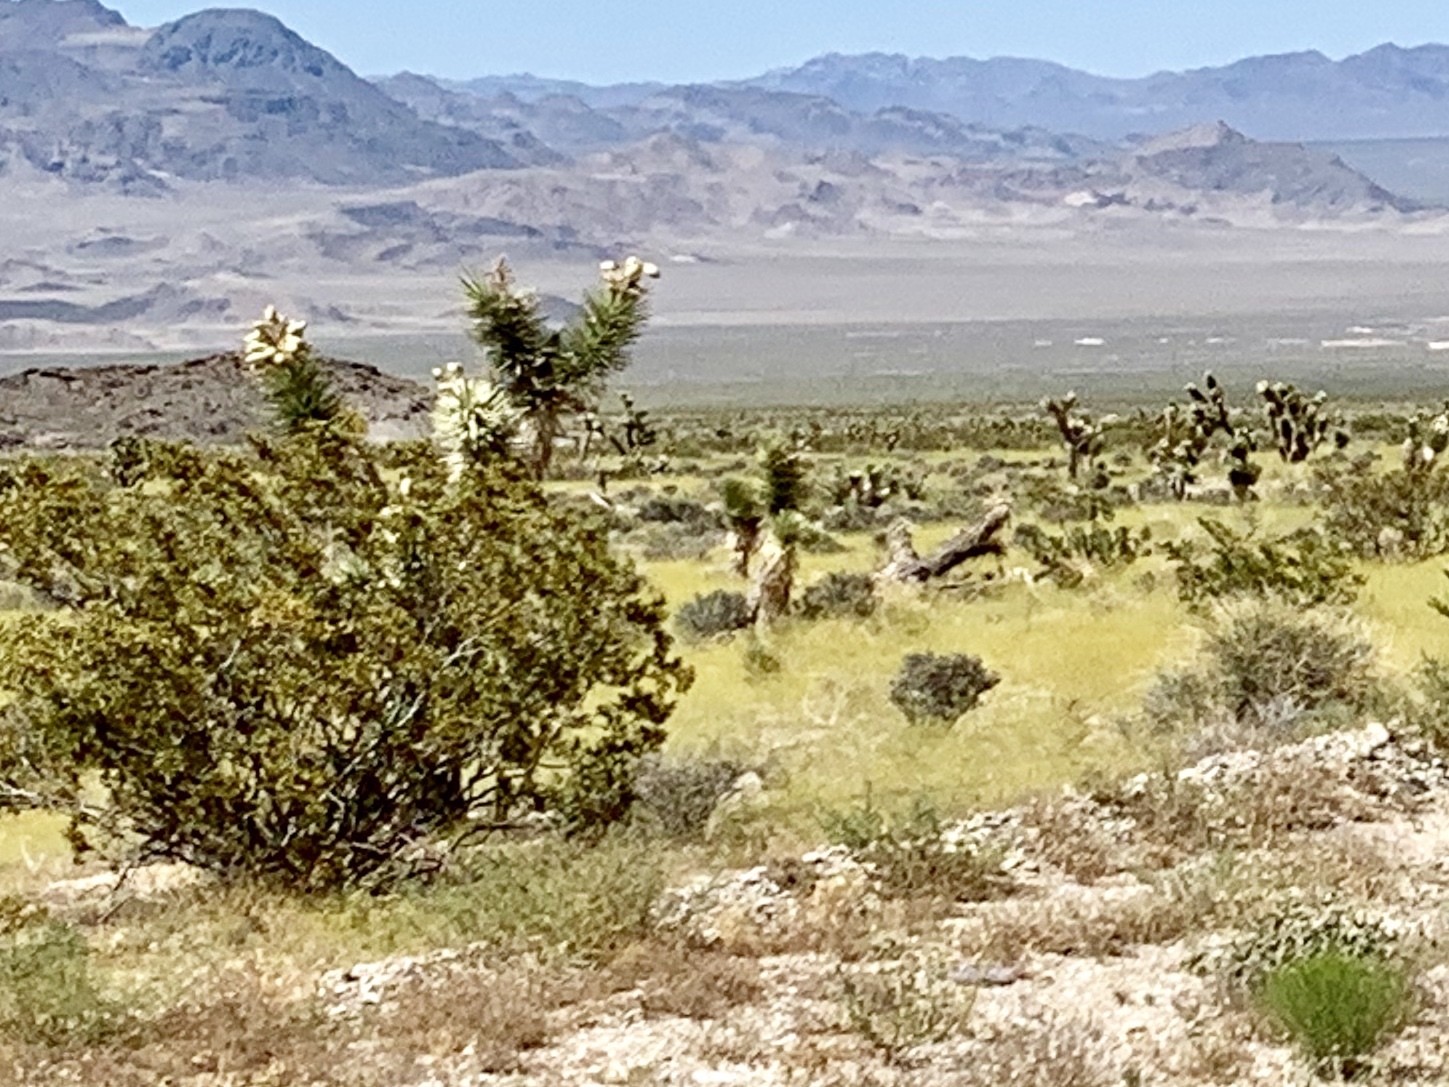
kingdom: Plantae
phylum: Tracheophyta
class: Magnoliopsida
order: Zygophyllales
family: Zygophyllaceae
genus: Larrea
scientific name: Larrea tridentata
